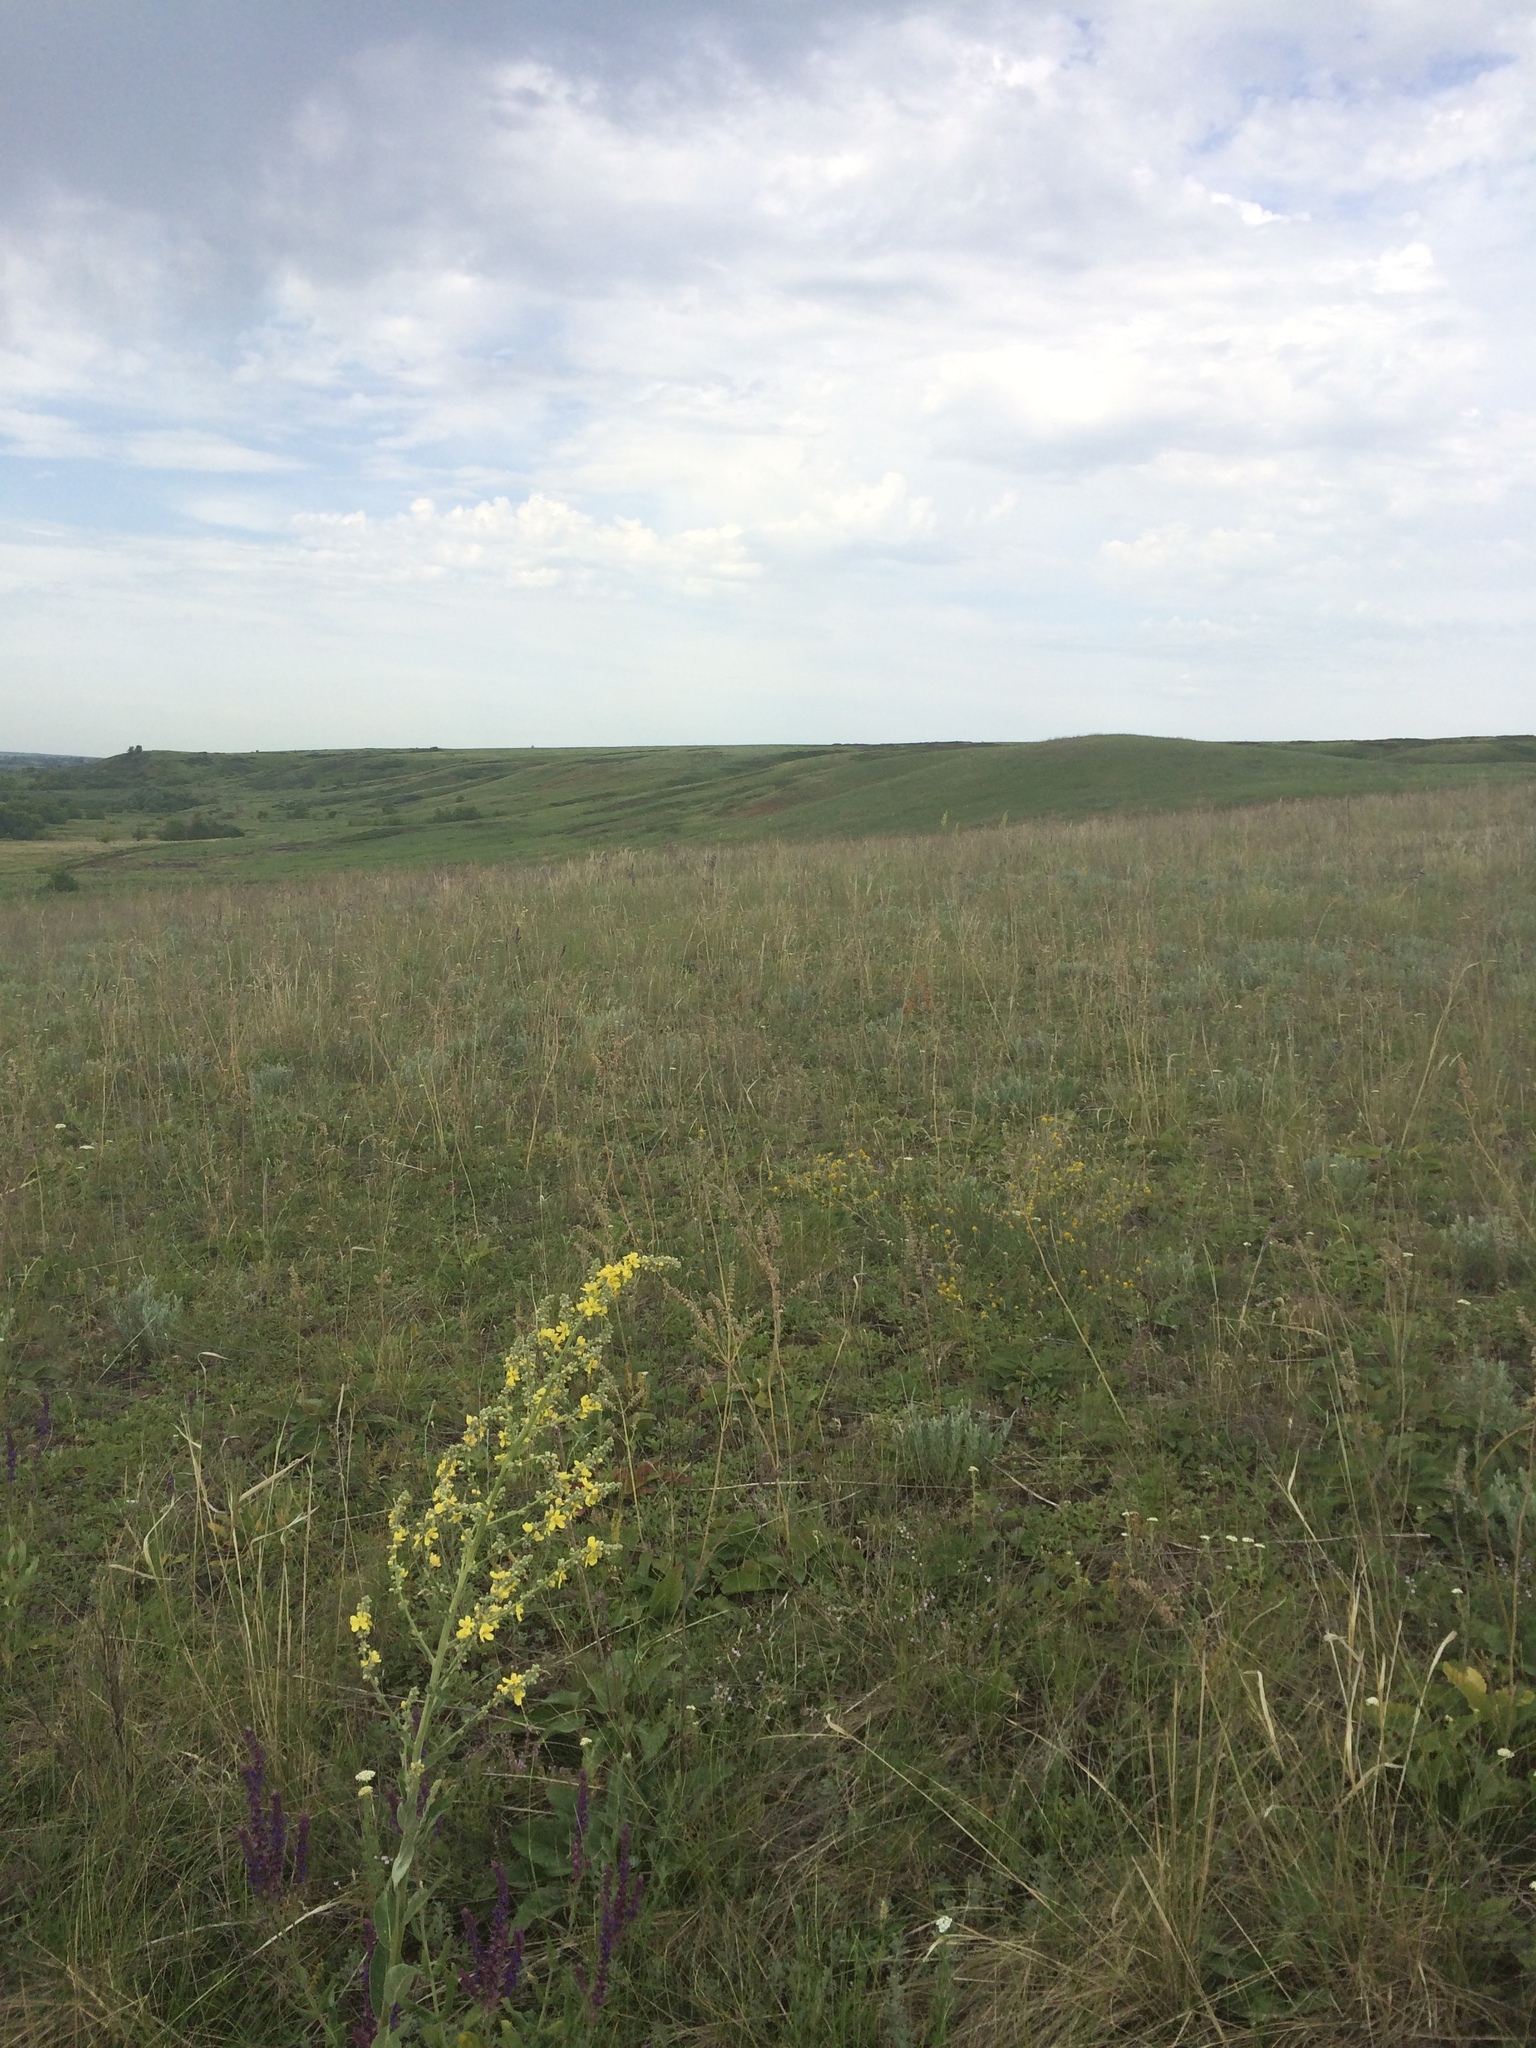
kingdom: Plantae
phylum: Tracheophyta
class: Magnoliopsida
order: Lamiales
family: Scrophulariaceae
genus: Verbascum
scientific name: Verbascum lychnitis
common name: White mullein
